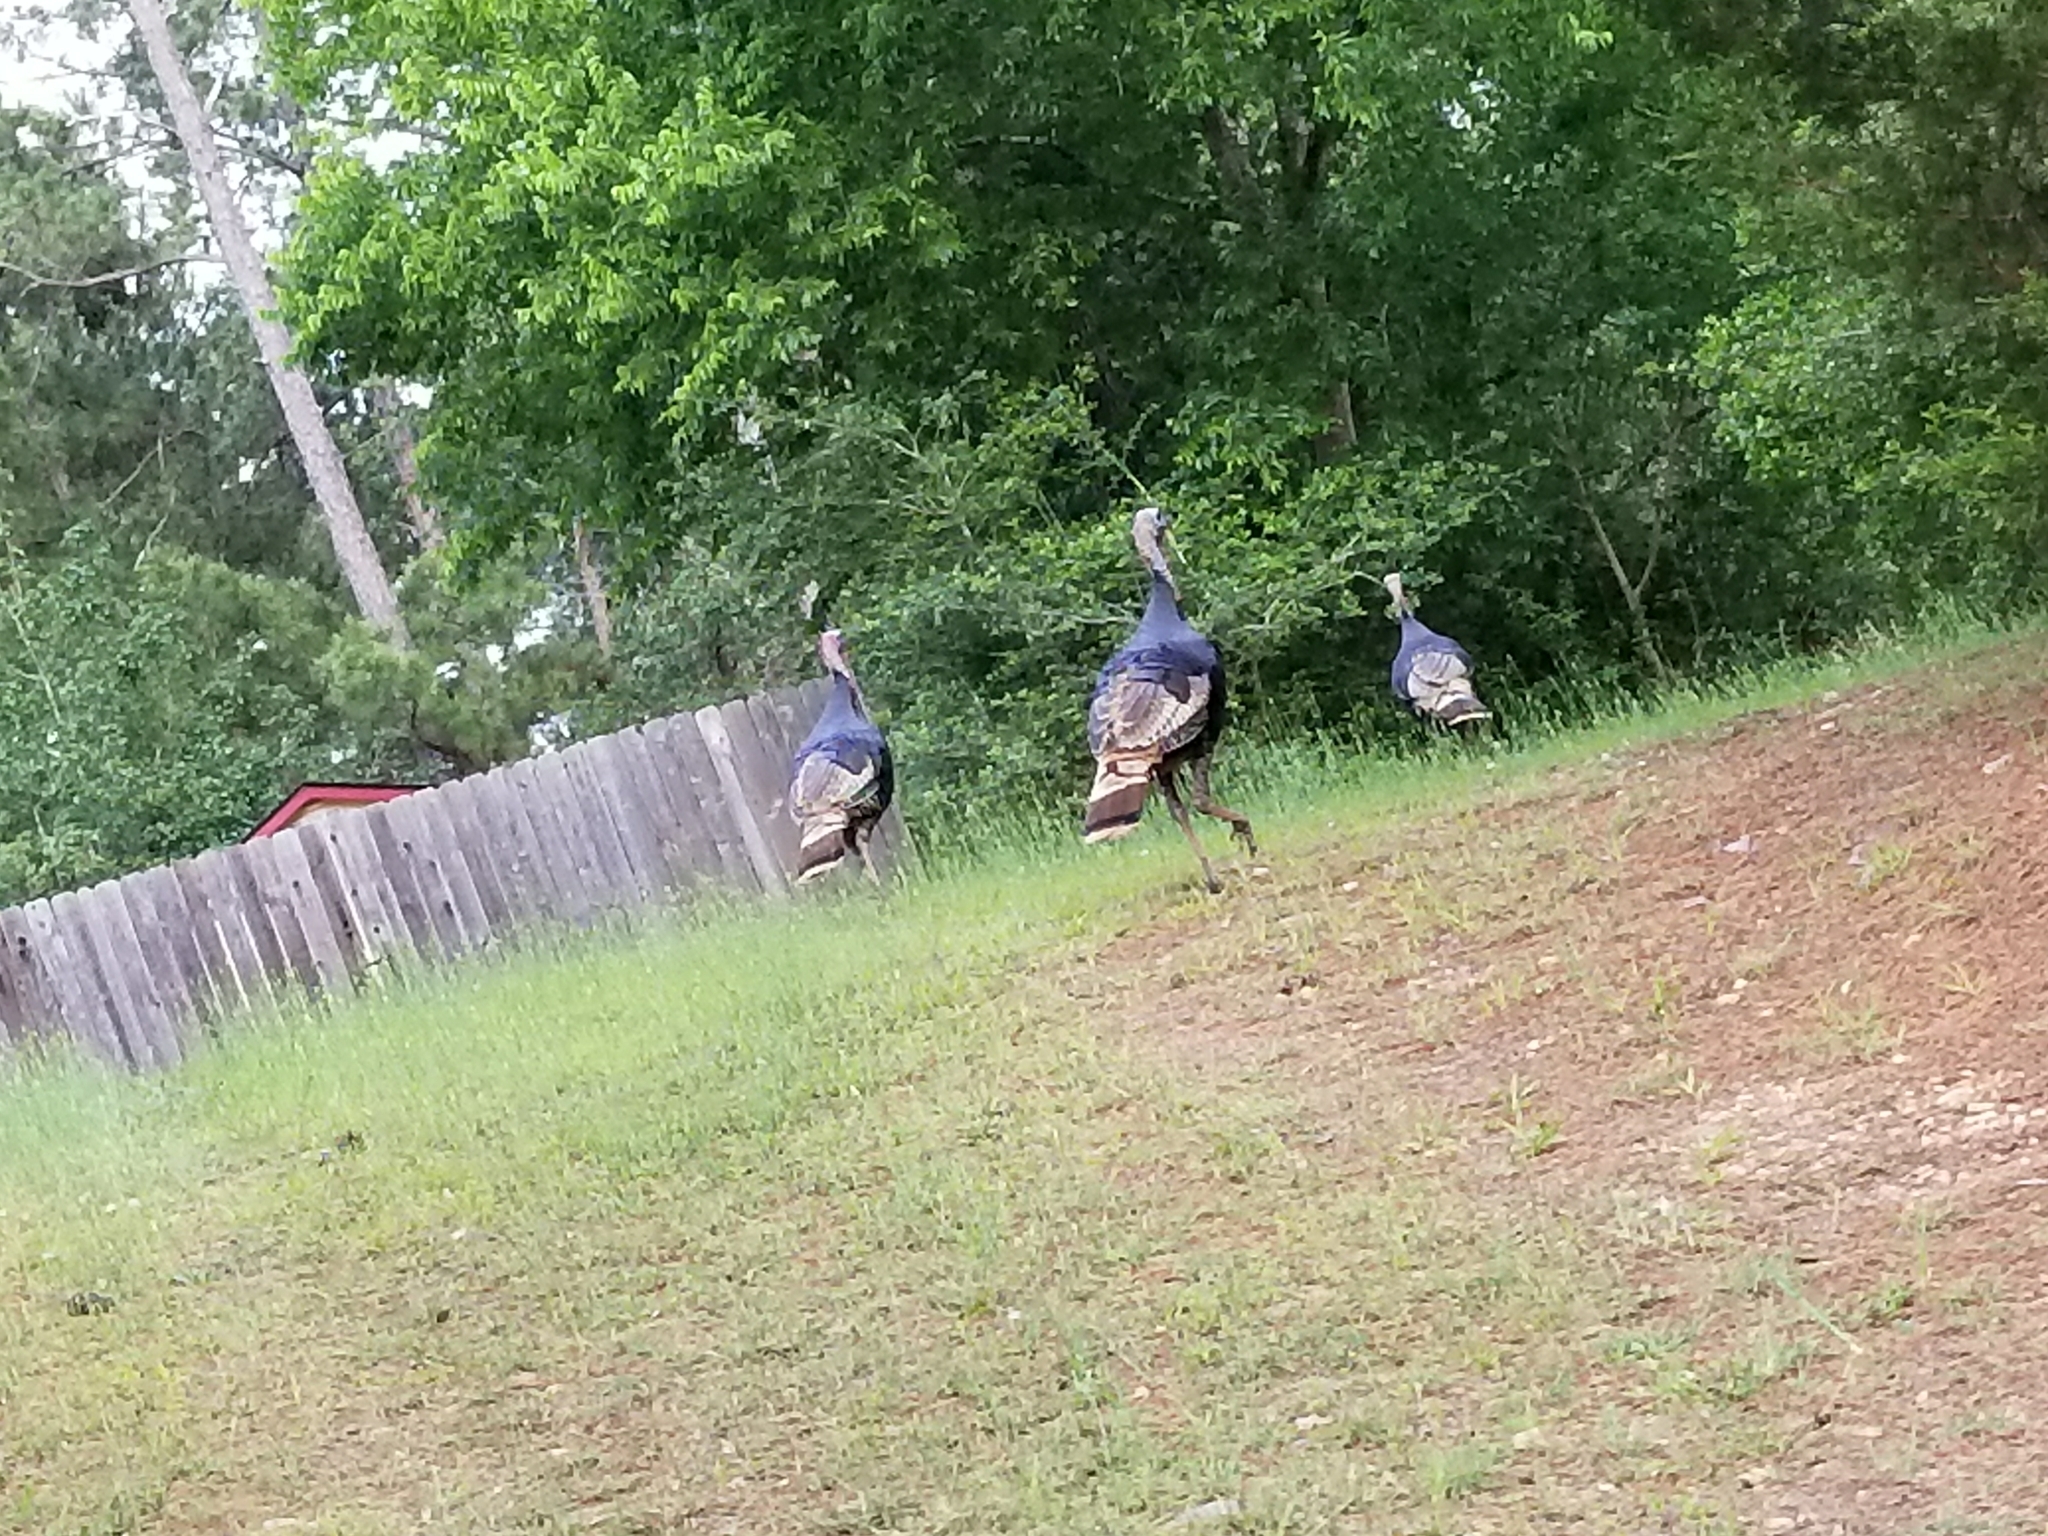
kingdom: Animalia
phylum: Chordata
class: Aves
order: Galliformes
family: Phasianidae
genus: Meleagris
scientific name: Meleagris gallopavo
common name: Wild turkey
